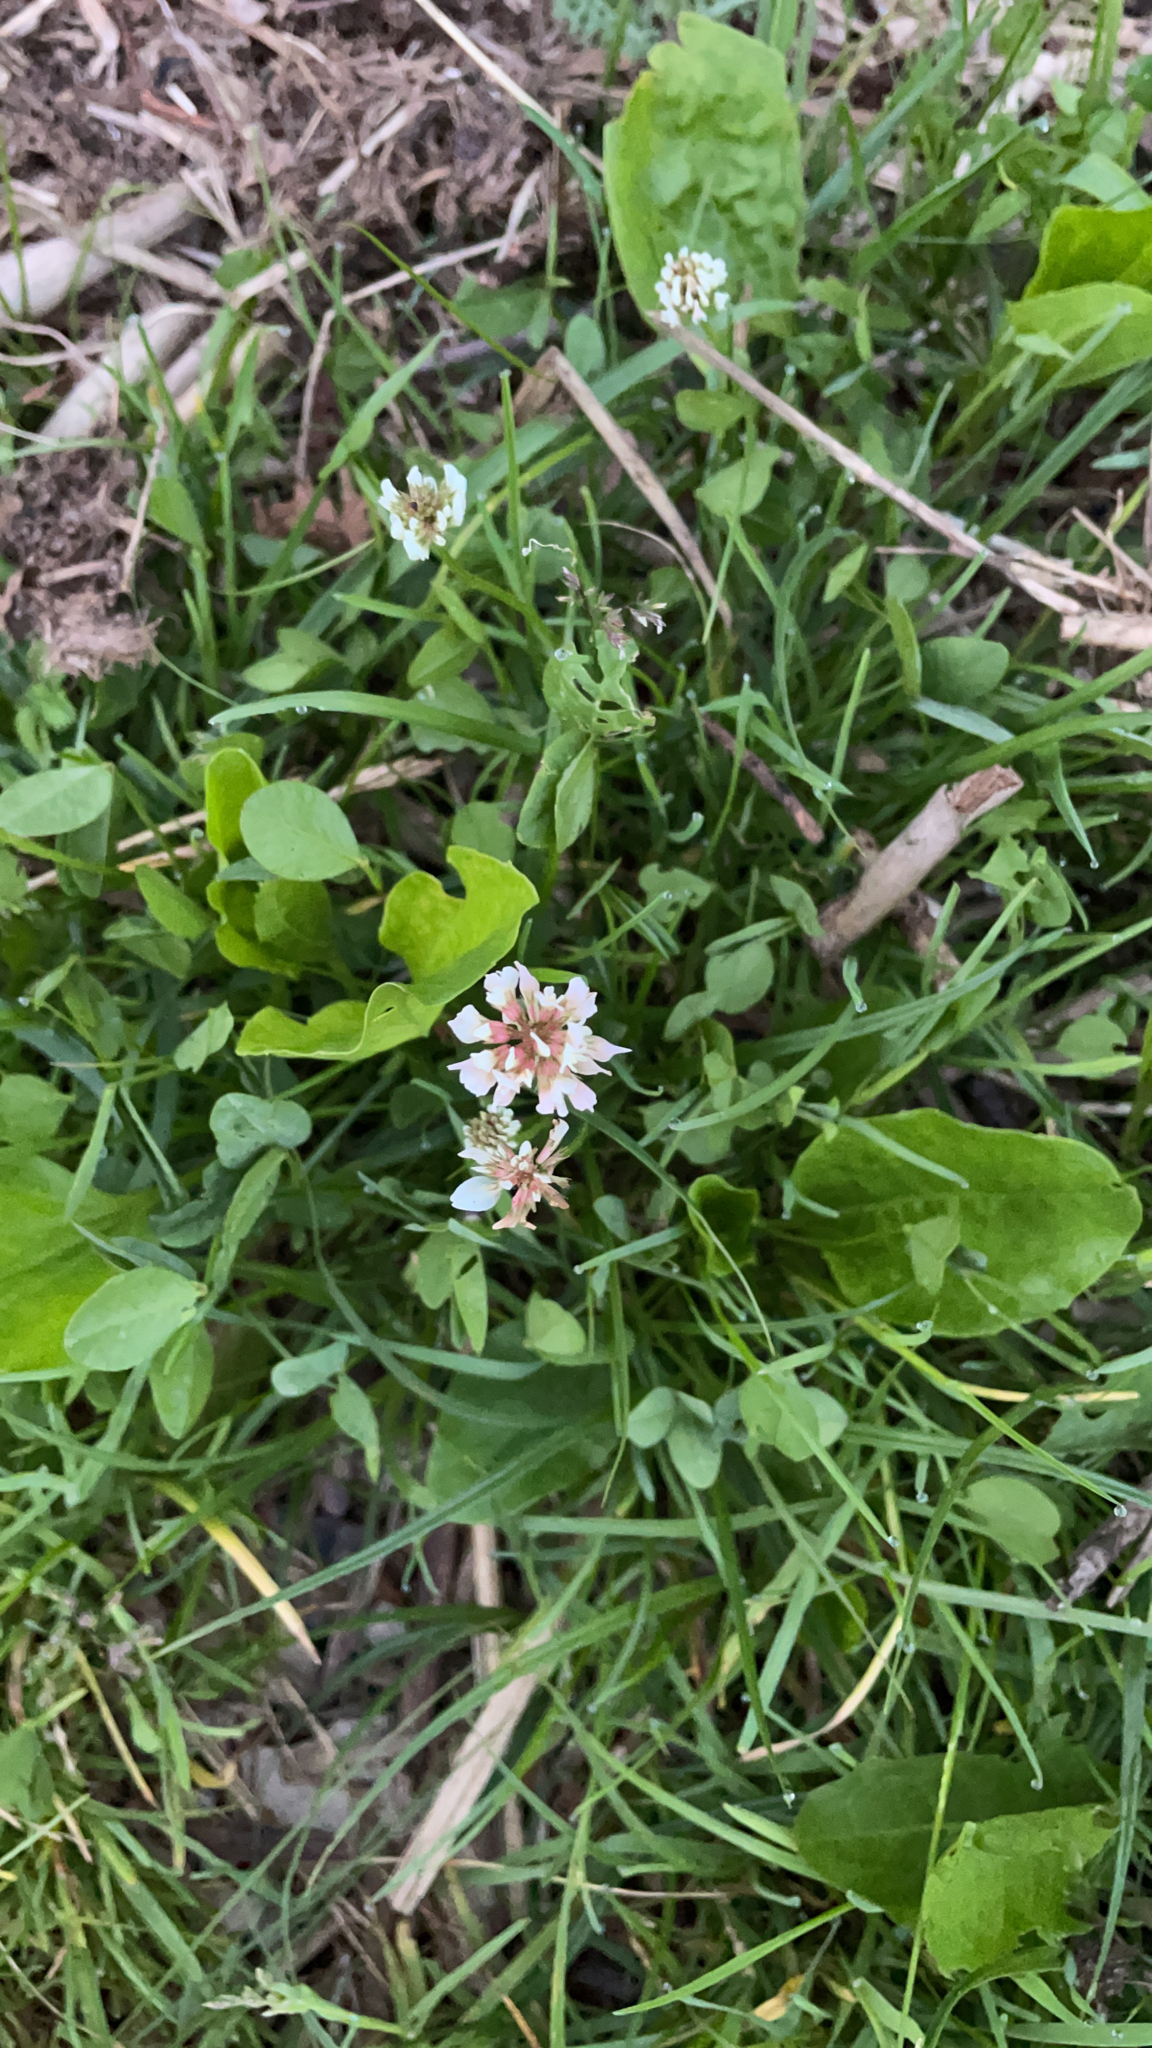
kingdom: Plantae
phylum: Tracheophyta
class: Magnoliopsida
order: Fabales
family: Fabaceae
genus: Trifolium
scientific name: Trifolium repens
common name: White clover
